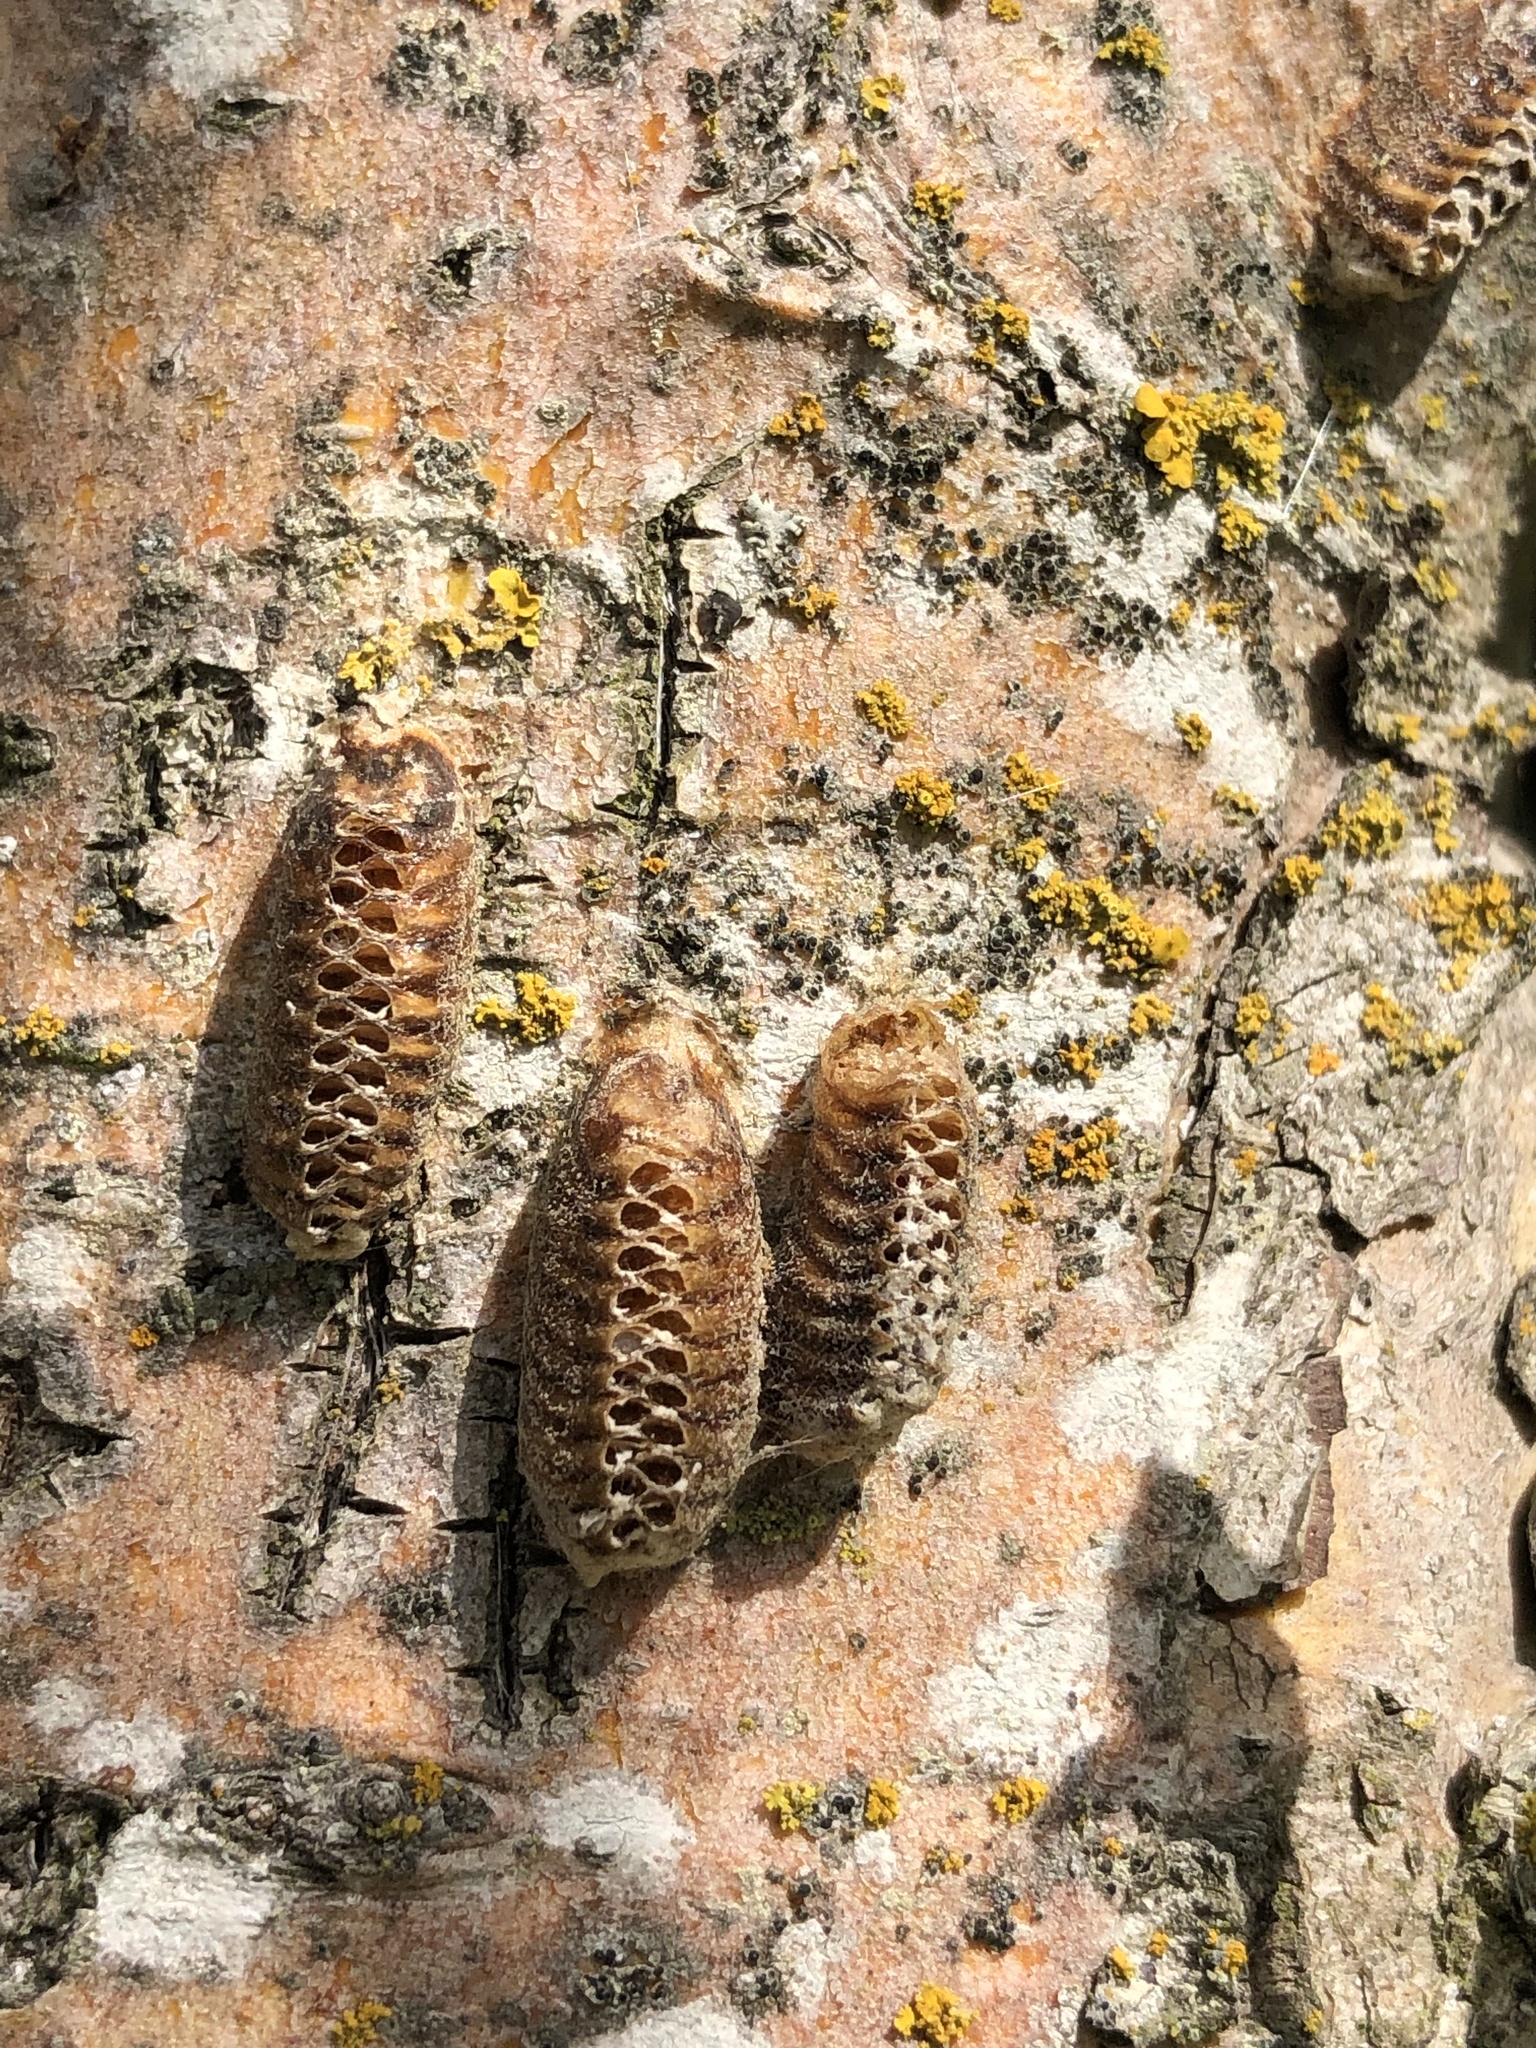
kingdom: Animalia
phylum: Arthropoda
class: Insecta
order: Mantodea
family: Mantidae
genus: Orthodera
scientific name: Orthodera novaezealandiae
